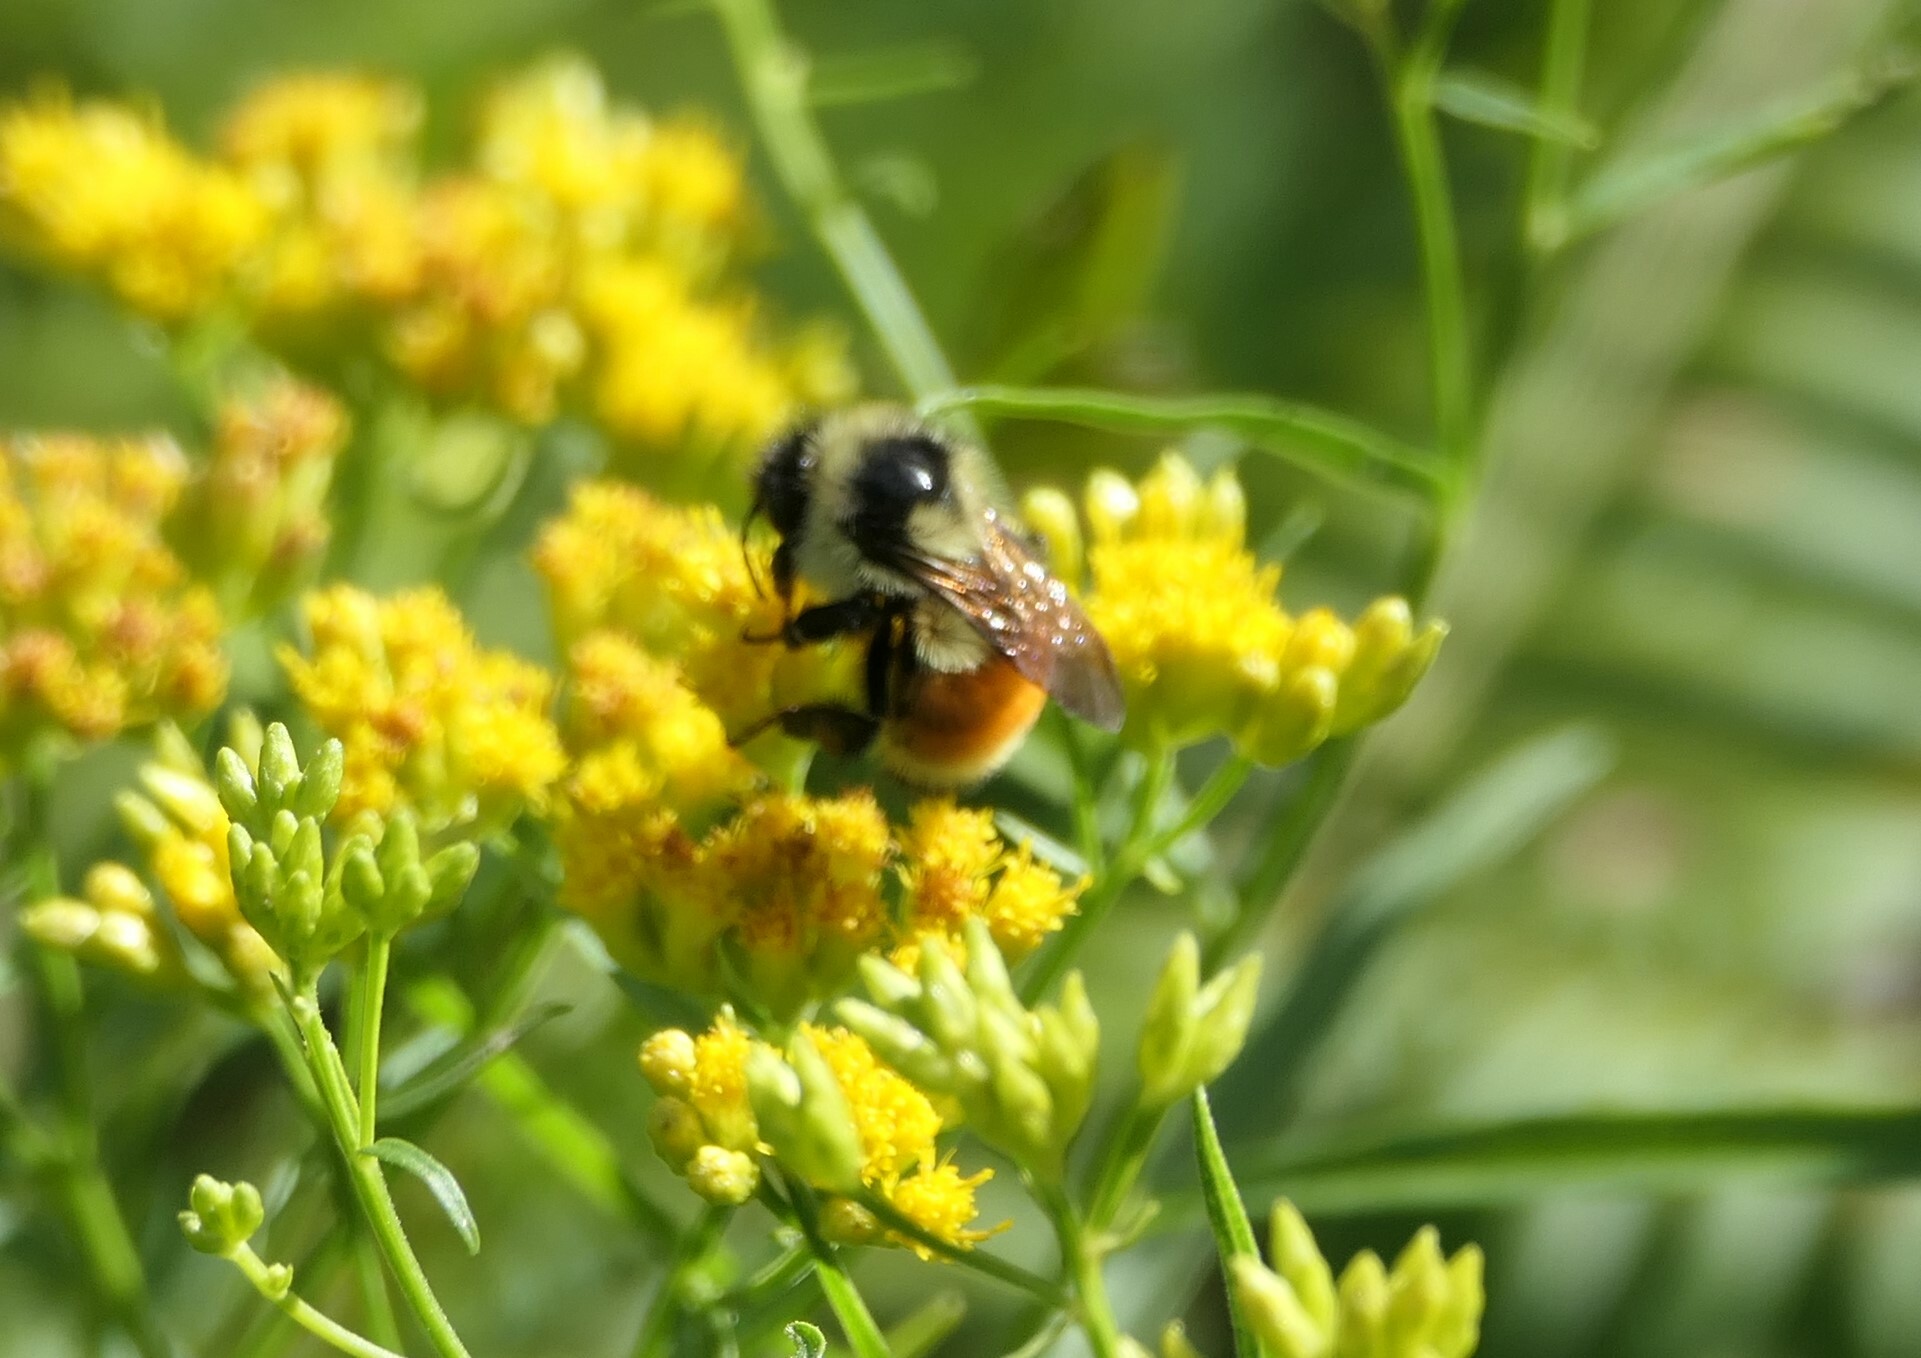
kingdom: Animalia
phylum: Arthropoda
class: Insecta
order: Hymenoptera
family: Apidae
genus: Bombus
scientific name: Bombus ternarius
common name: Tri-colored bumble bee
